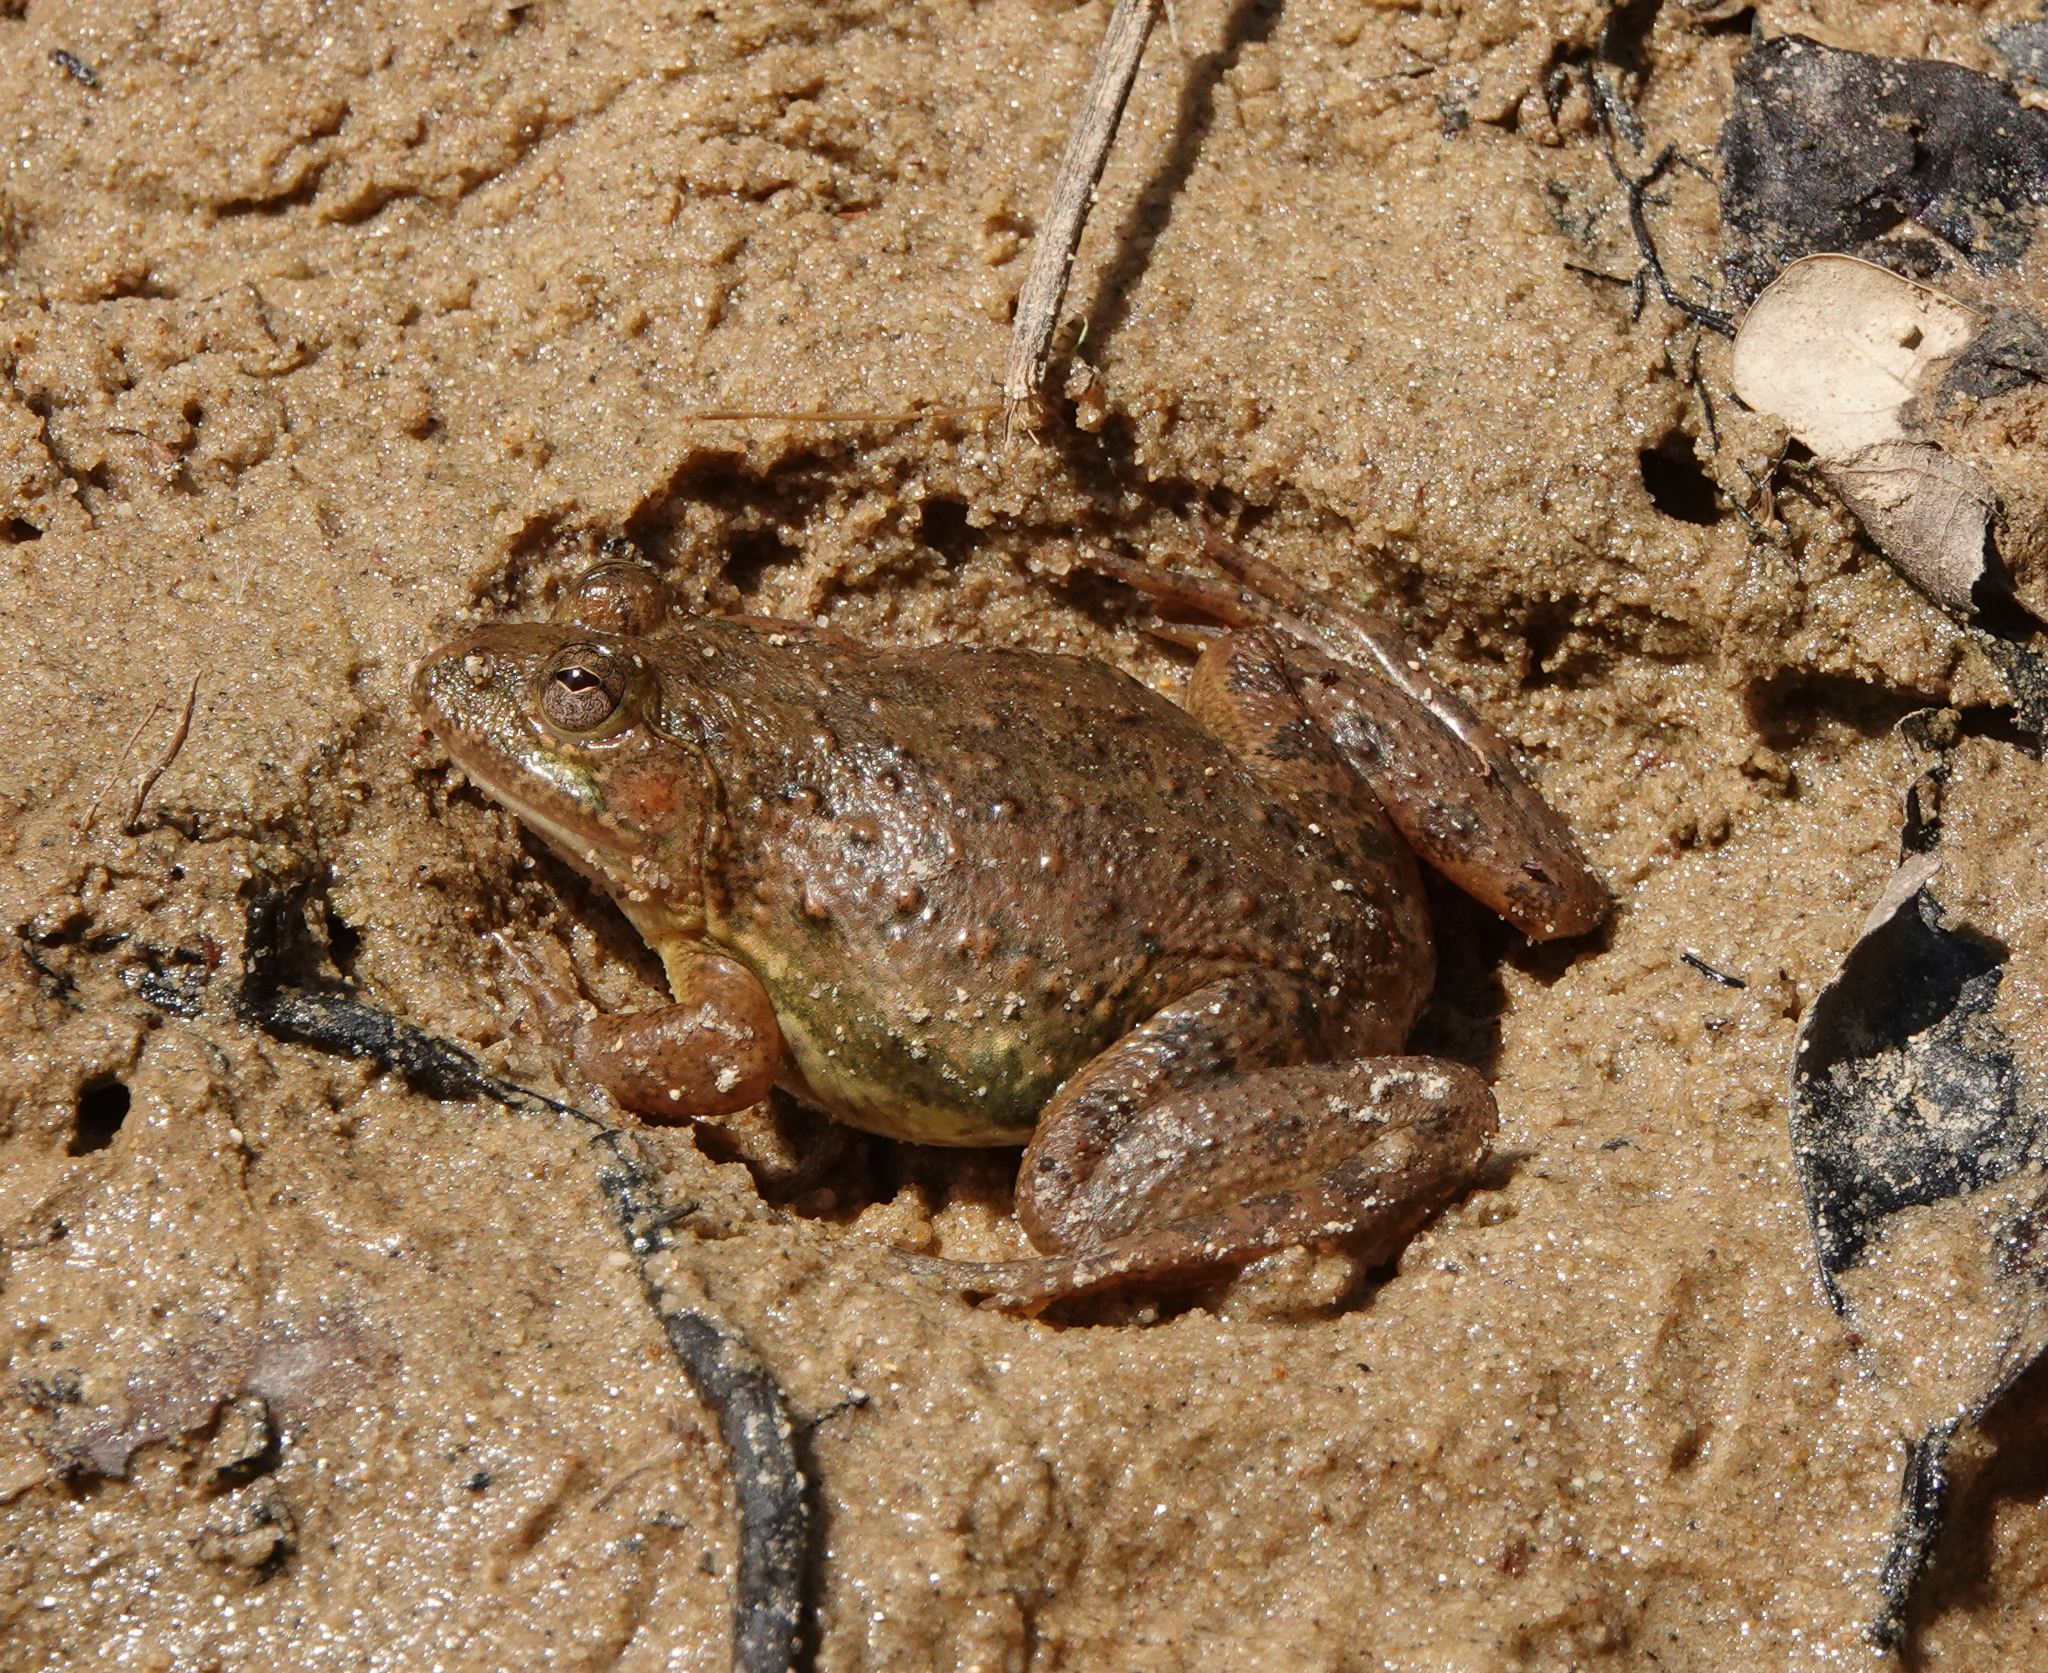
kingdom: Animalia
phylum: Chordata
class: Amphibia
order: Anura
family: Dicroglossidae
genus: Euphlyctis
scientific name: Euphlyctis cyanophlyctis
